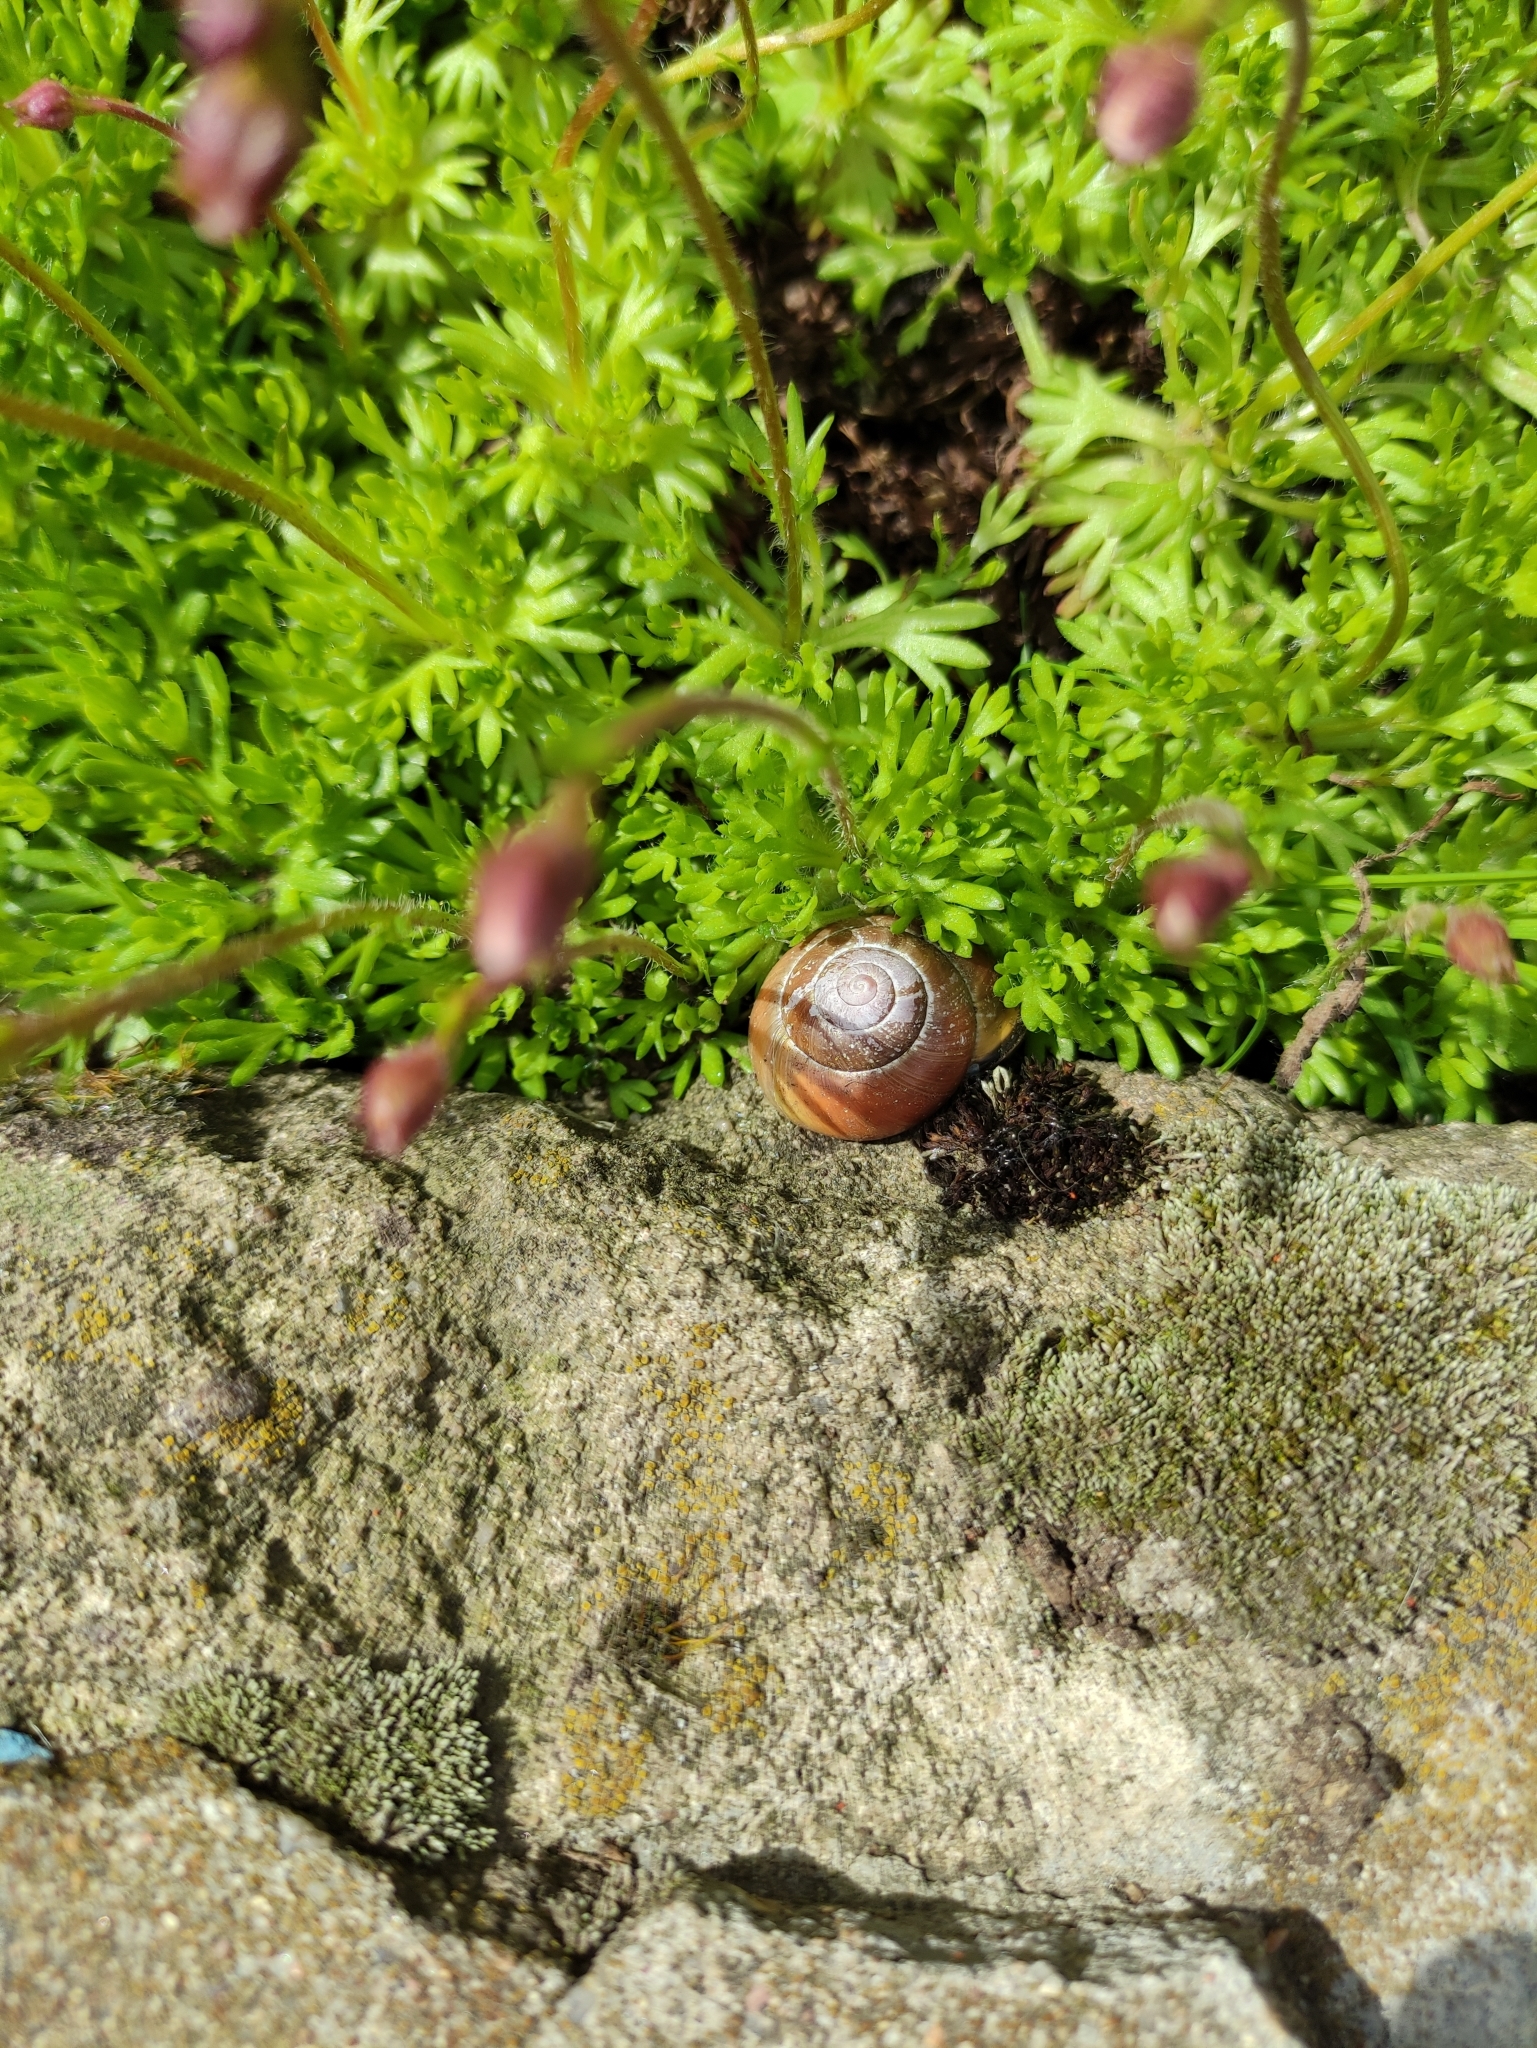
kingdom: Animalia
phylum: Mollusca
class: Gastropoda
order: Stylommatophora
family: Helicidae
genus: Cepaea
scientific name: Cepaea nemoralis
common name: Grovesnail
